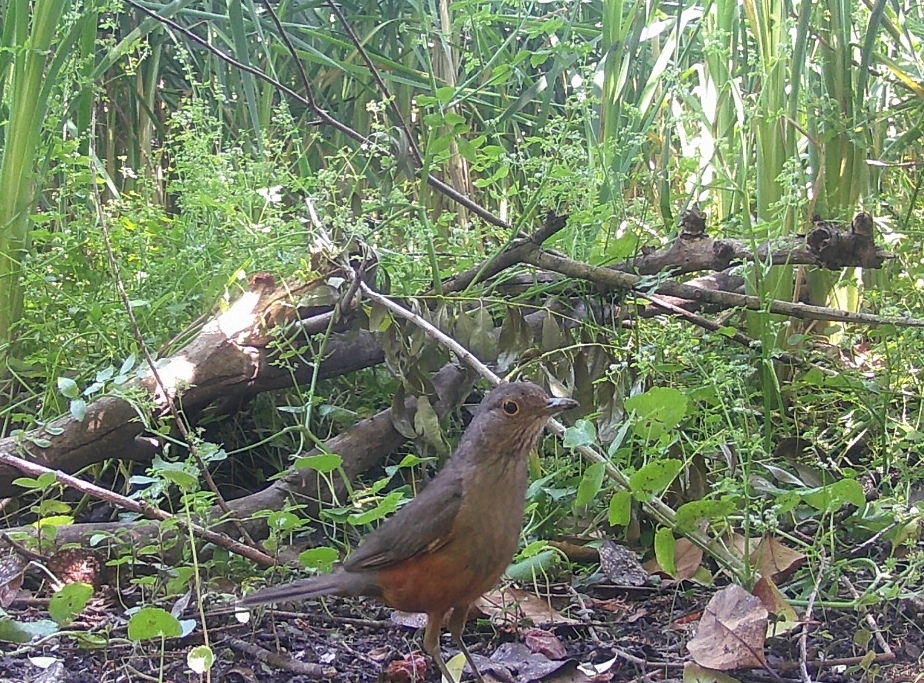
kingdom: Animalia
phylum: Chordata
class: Aves
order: Passeriformes
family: Turdidae
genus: Turdus
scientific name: Turdus rufiventris
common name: Rufous-bellied thrush
